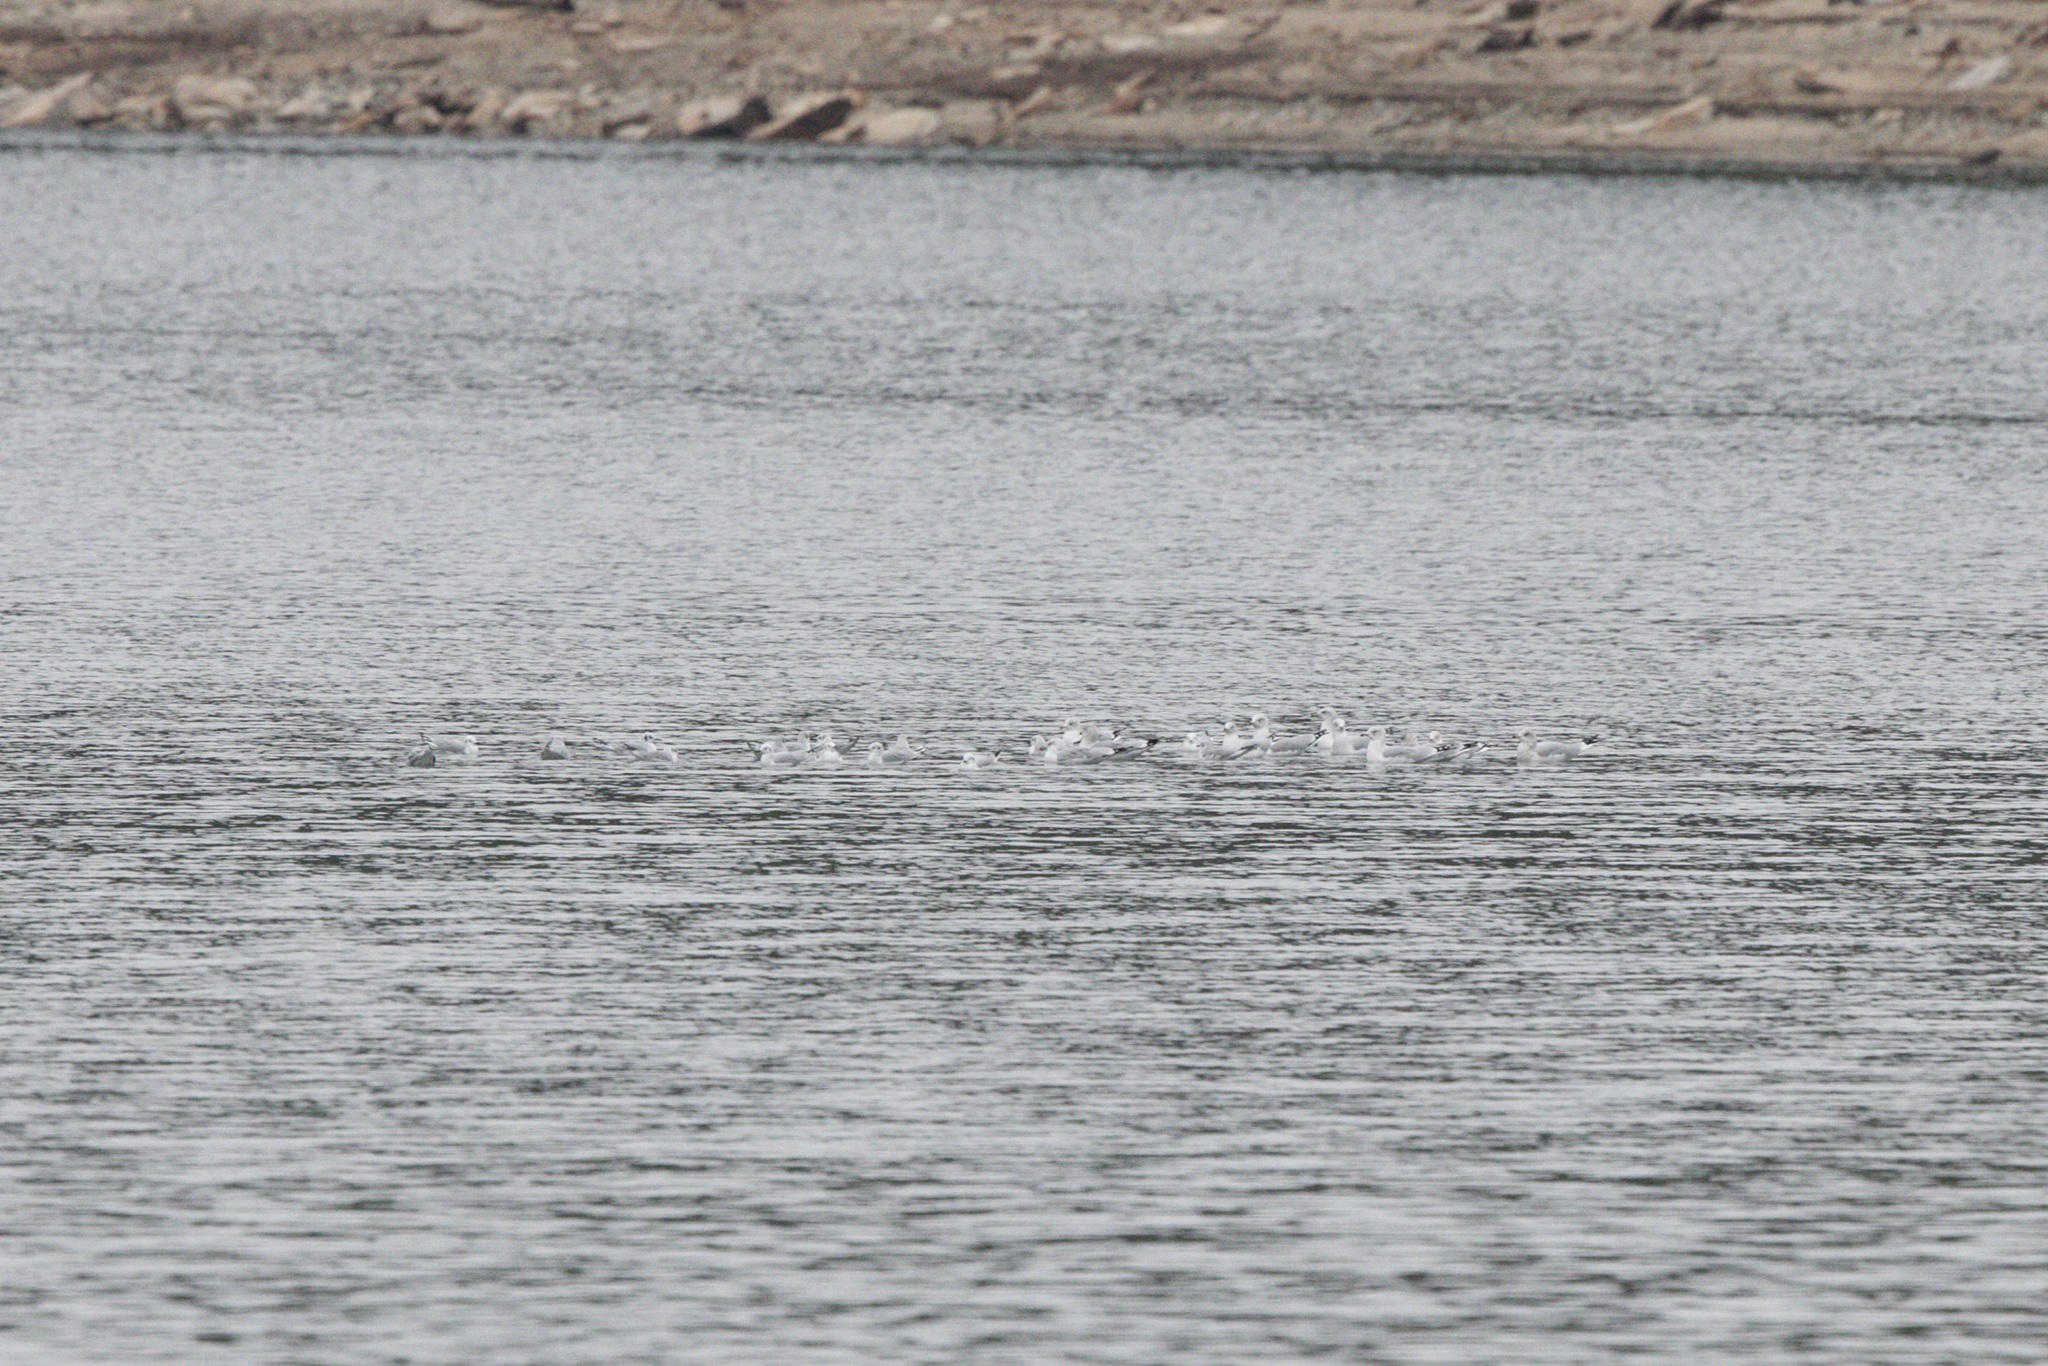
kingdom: Animalia
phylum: Chordata
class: Aves
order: Charadriiformes
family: Laridae
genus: Chroicocephalus
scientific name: Chroicocephalus philadelphia
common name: Bonaparte's gull
